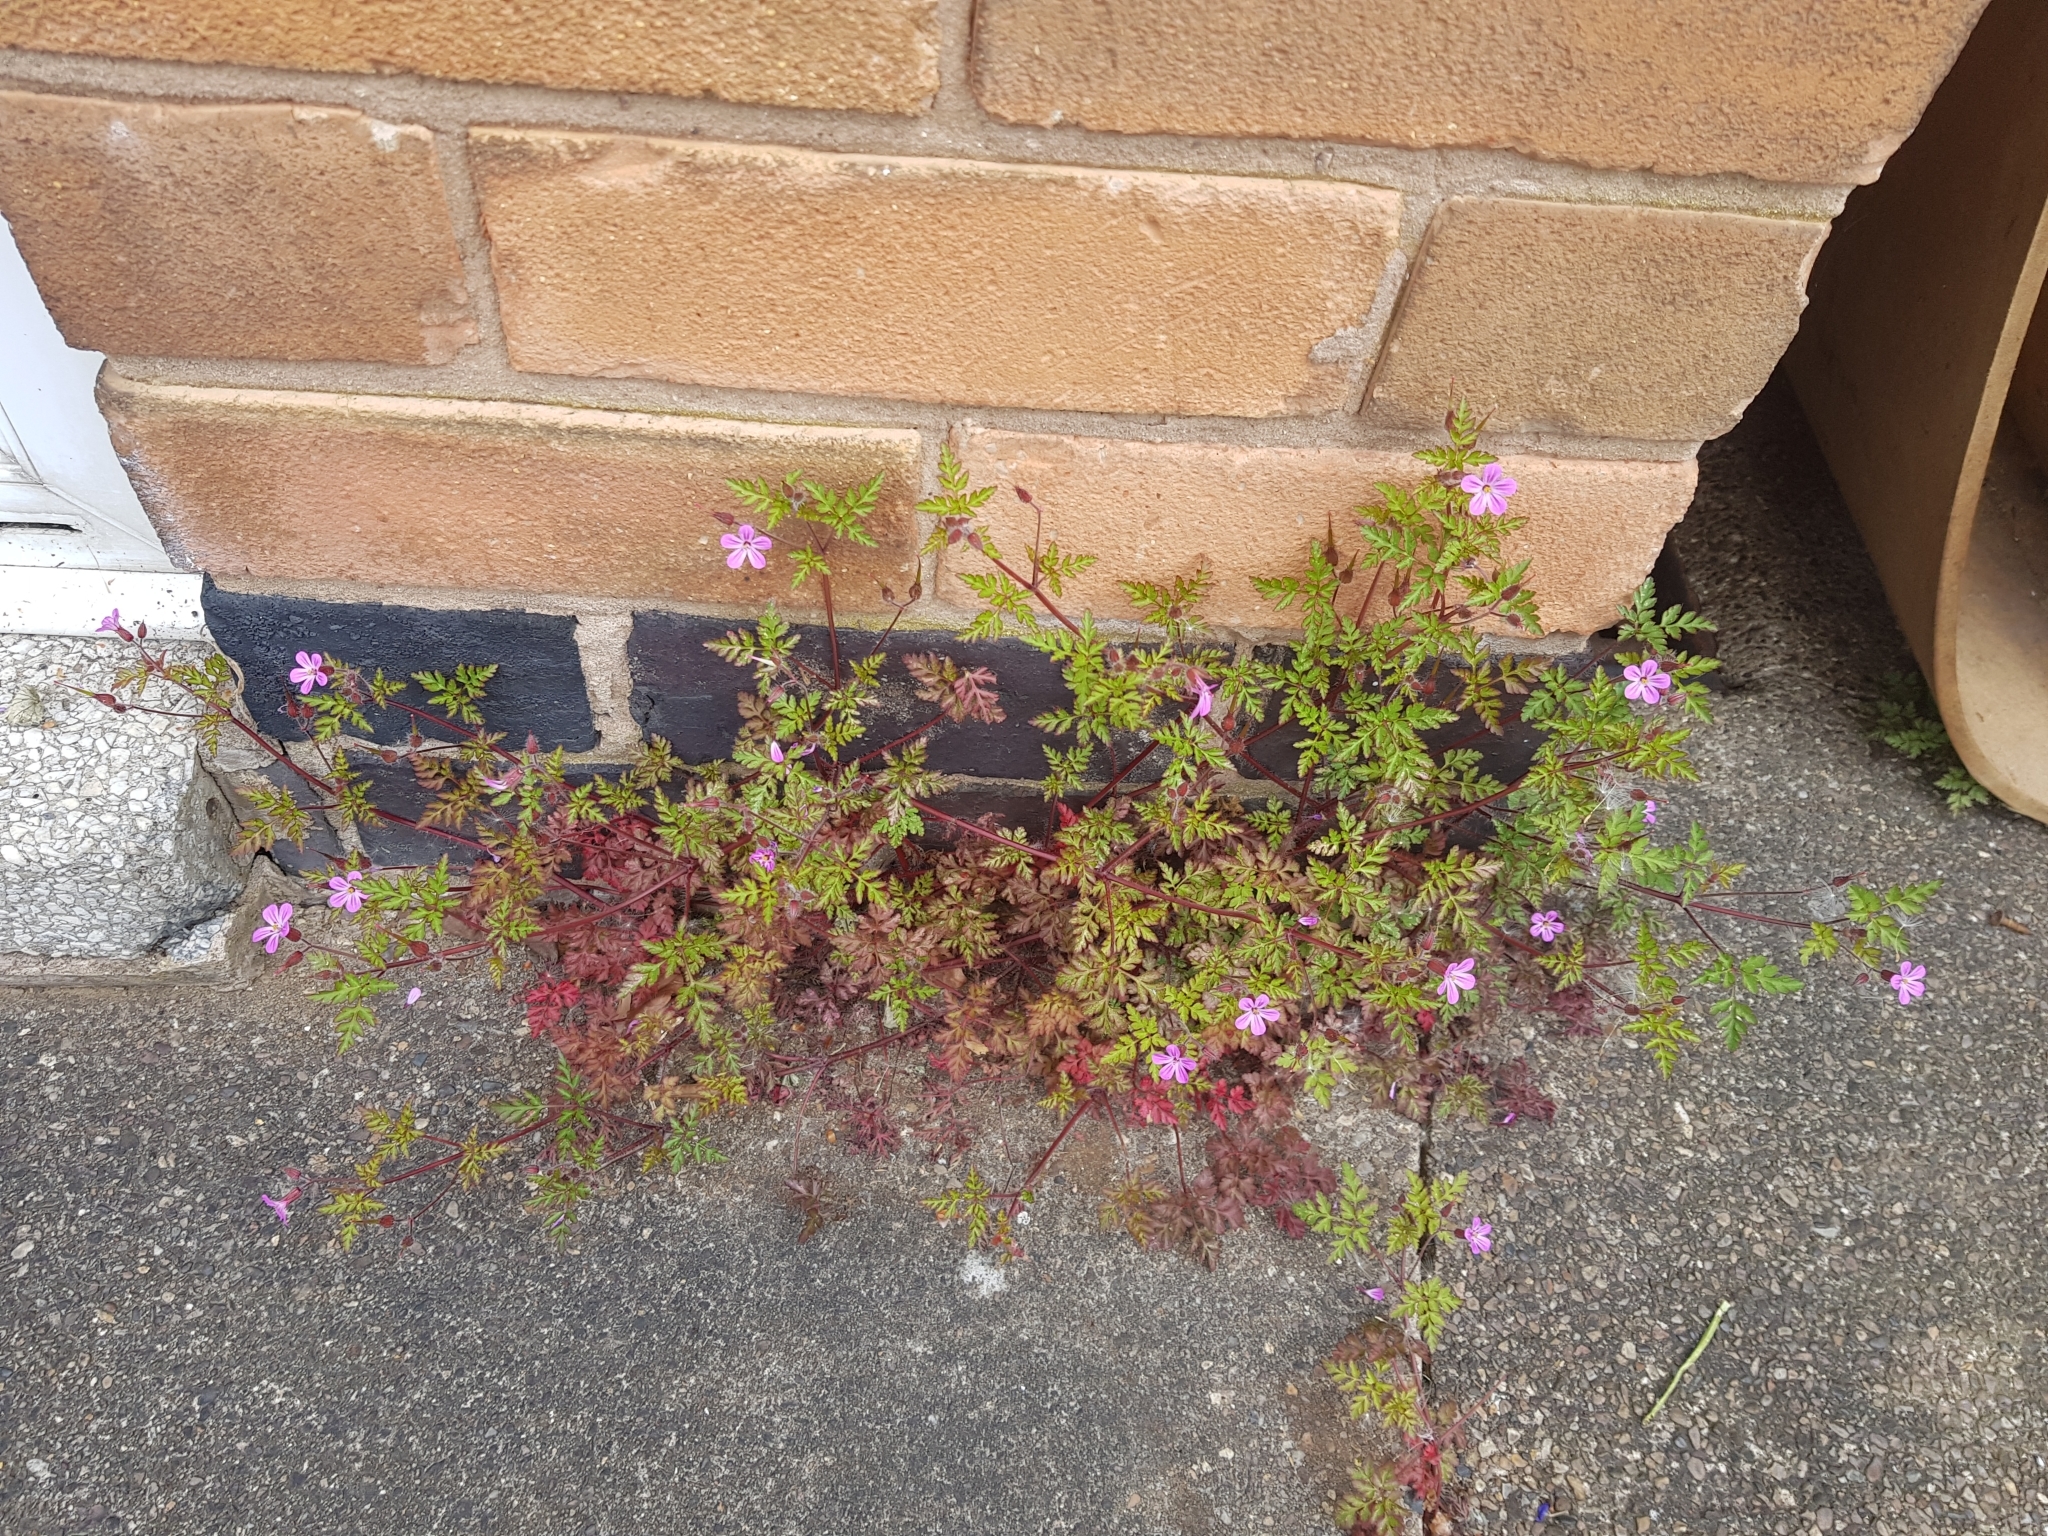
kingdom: Plantae
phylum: Tracheophyta
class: Magnoliopsida
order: Geraniales
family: Geraniaceae
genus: Geranium
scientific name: Geranium robertianum
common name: Herb-robert
